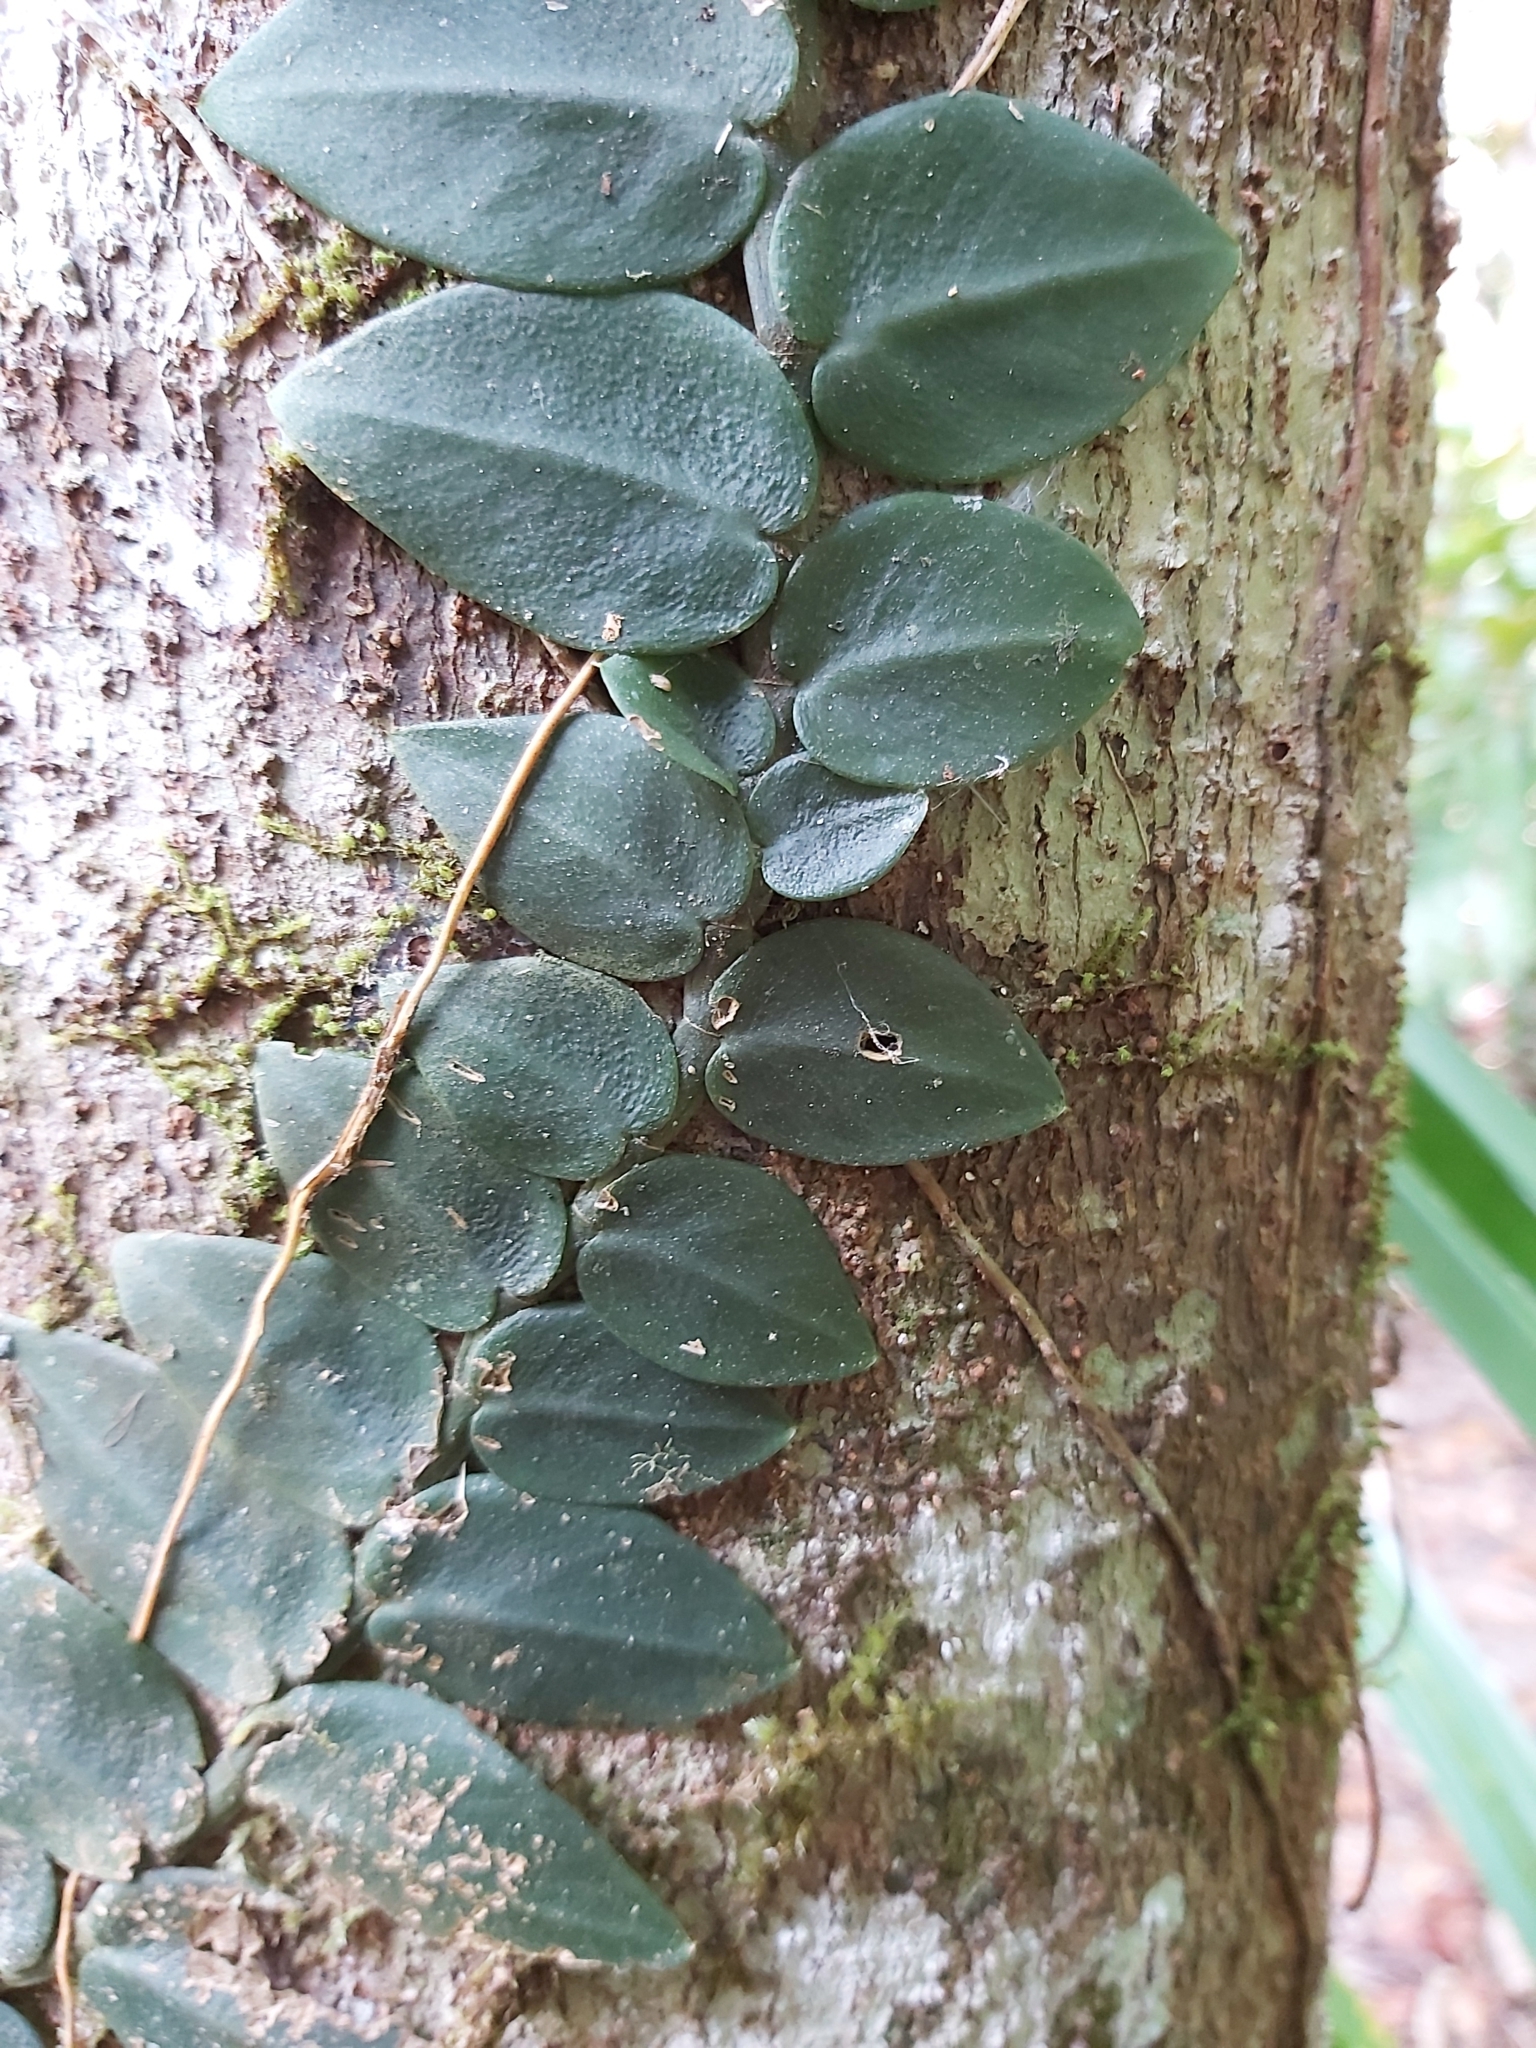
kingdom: Plantae
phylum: Tracheophyta
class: Liliopsida
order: Alismatales
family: Araceae
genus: Rhaphidophora
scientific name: Rhaphidophora hayi
